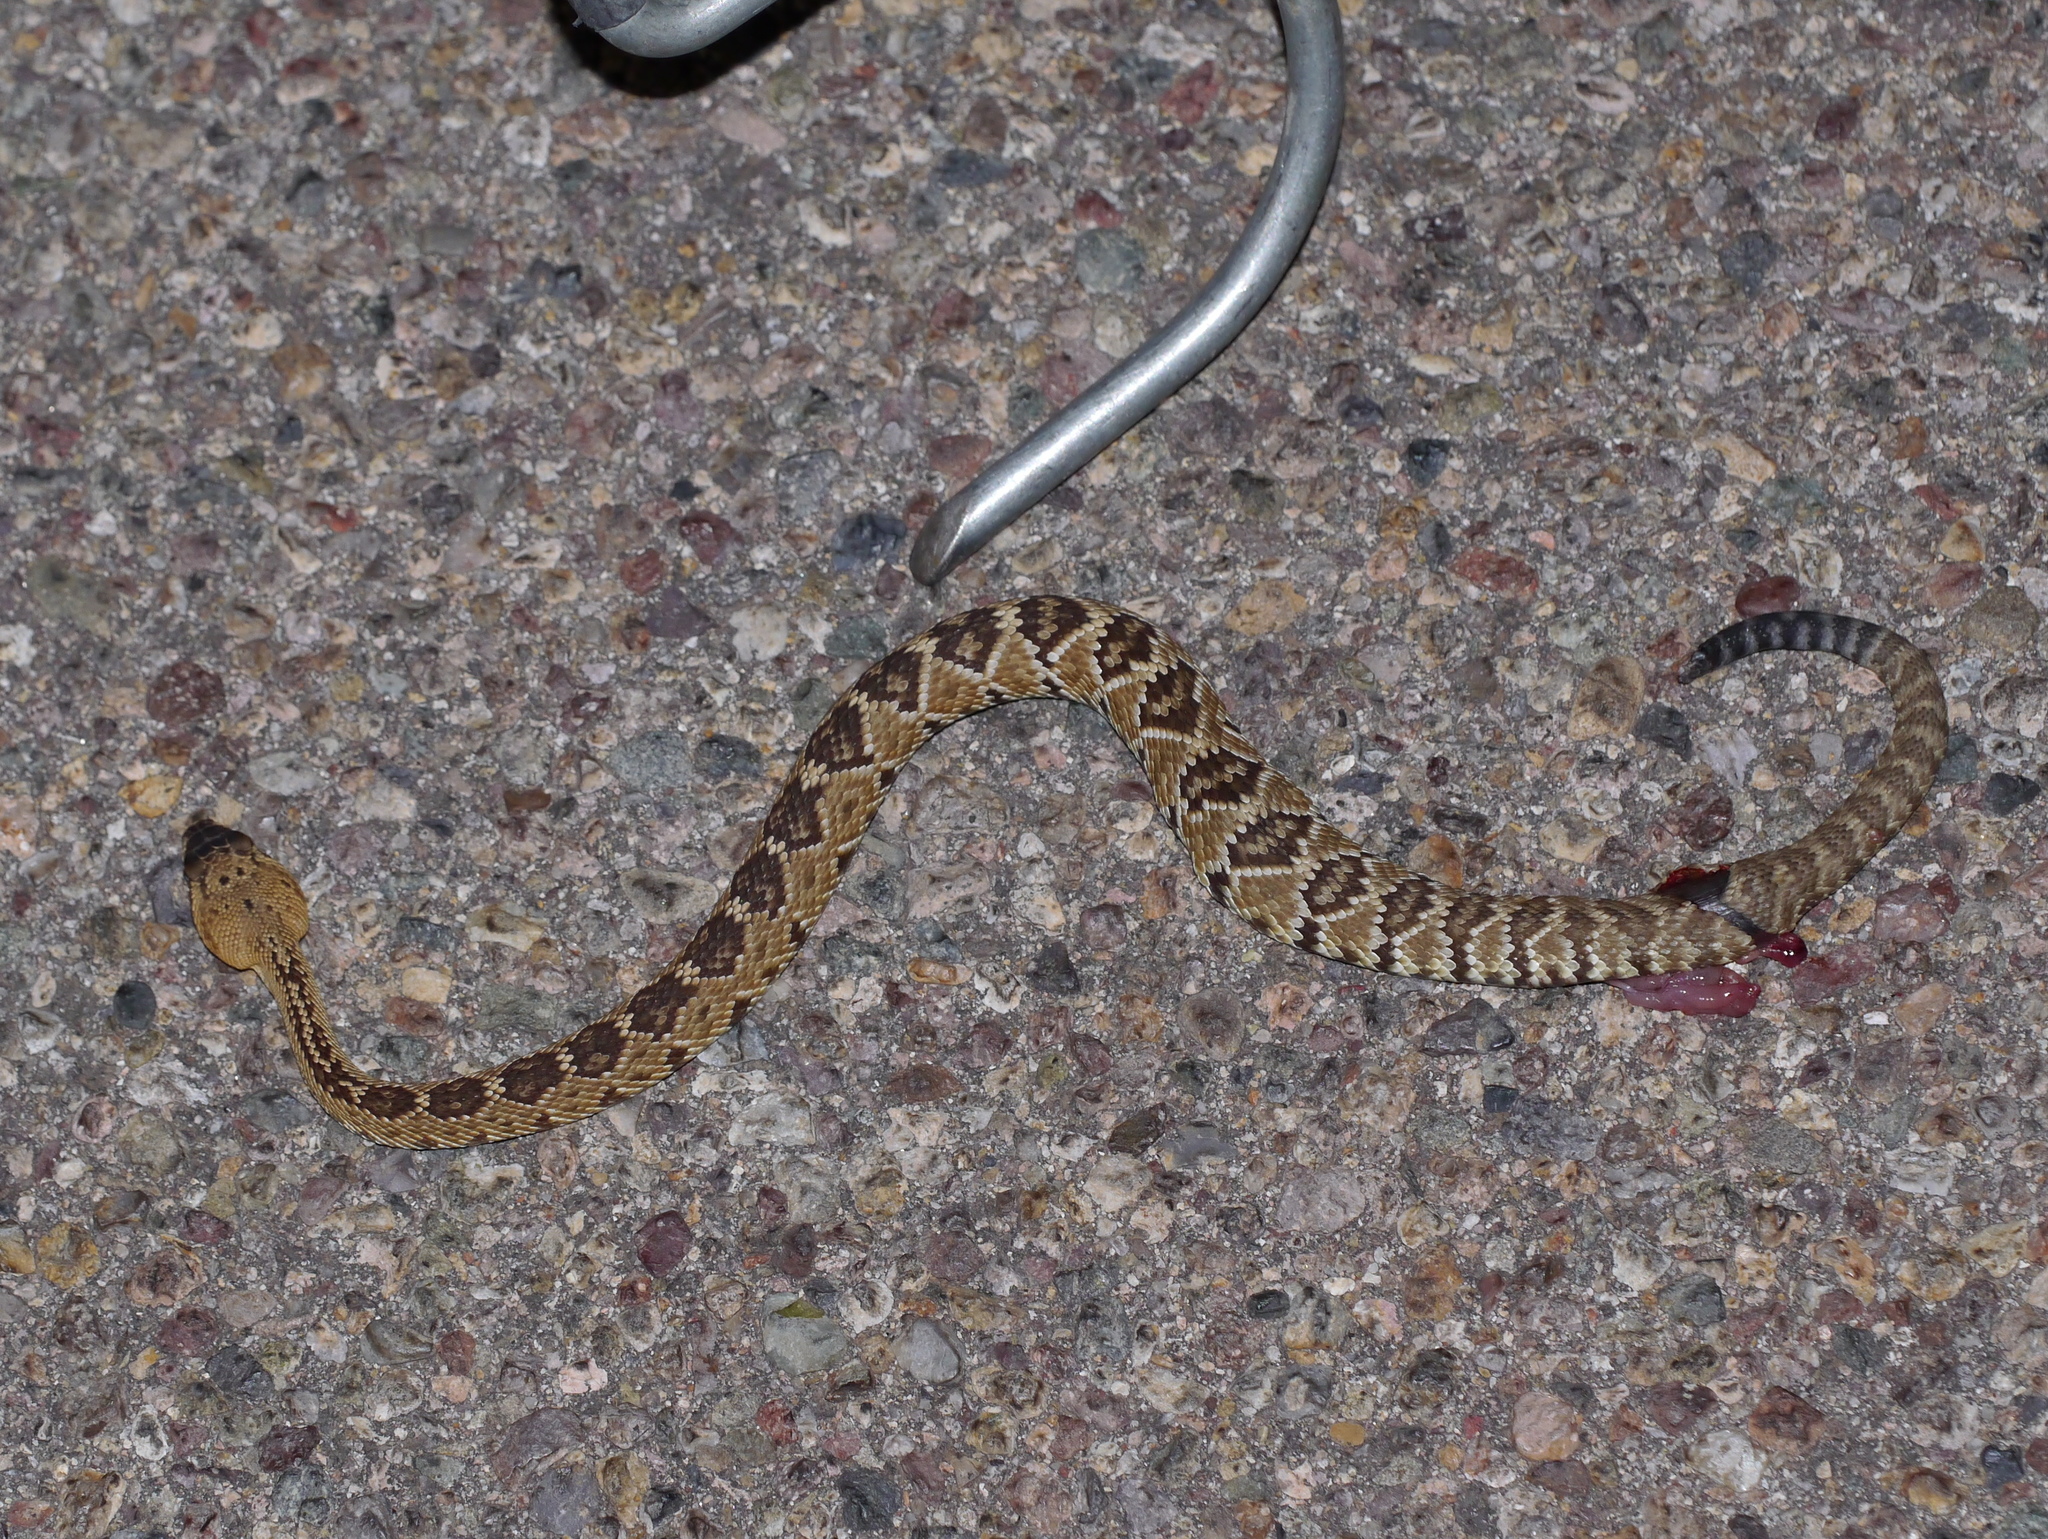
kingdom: Animalia
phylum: Chordata
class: Squamata
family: Viperidae
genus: Crotalus
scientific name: Crotalus molossus
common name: Black tailed rattlesnake
